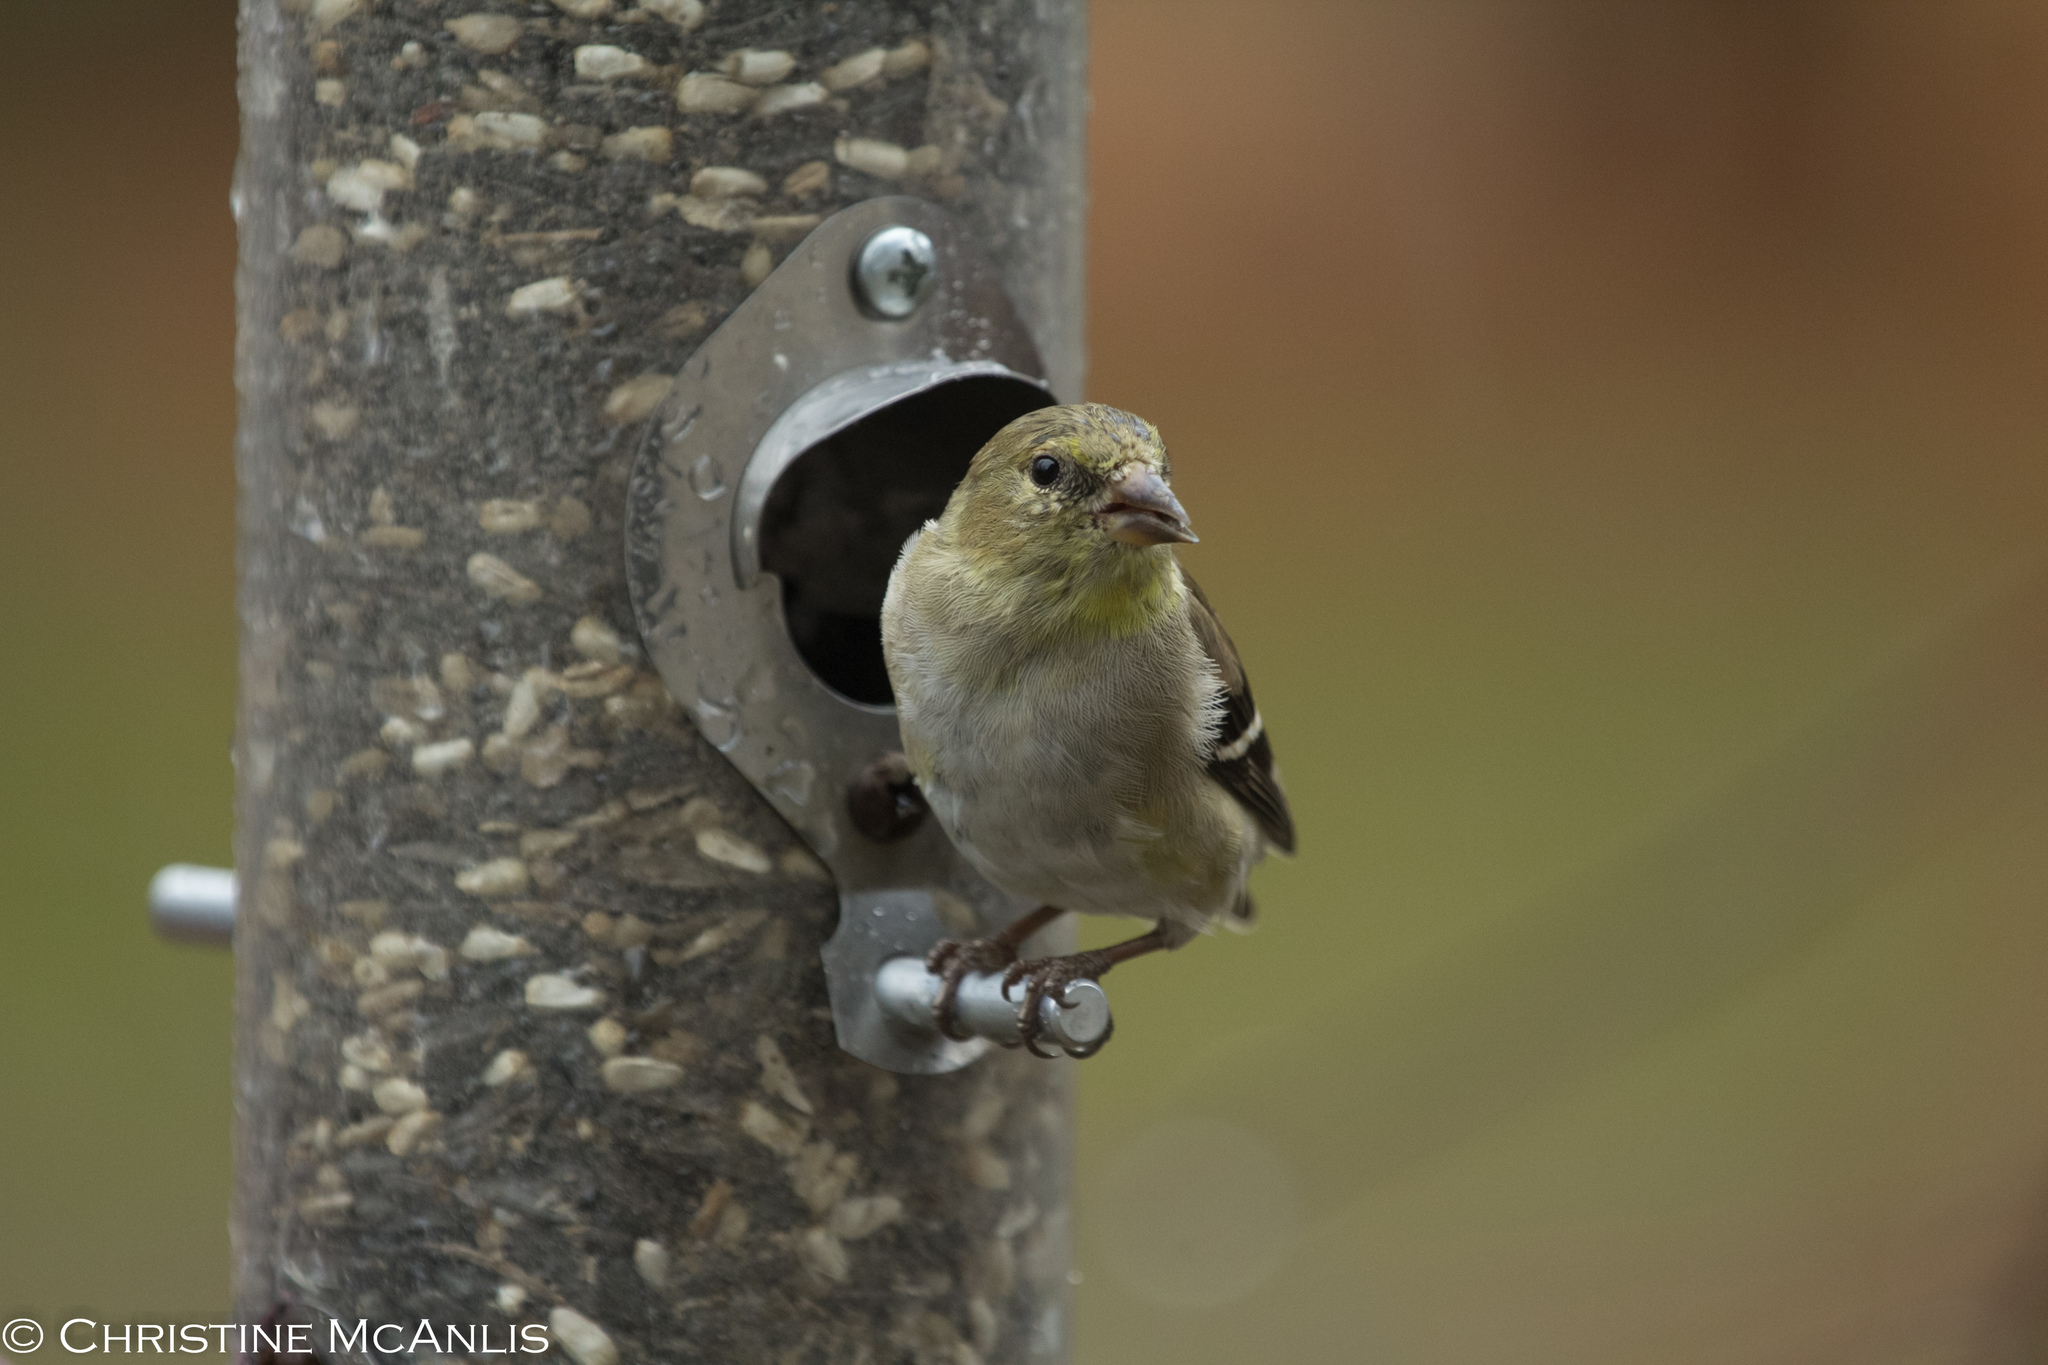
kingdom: Animalia
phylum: Chordata
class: Aves
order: Passeriformes
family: Fringillidae
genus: Spinus
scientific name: Spinus tristis
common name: American goldfinch
